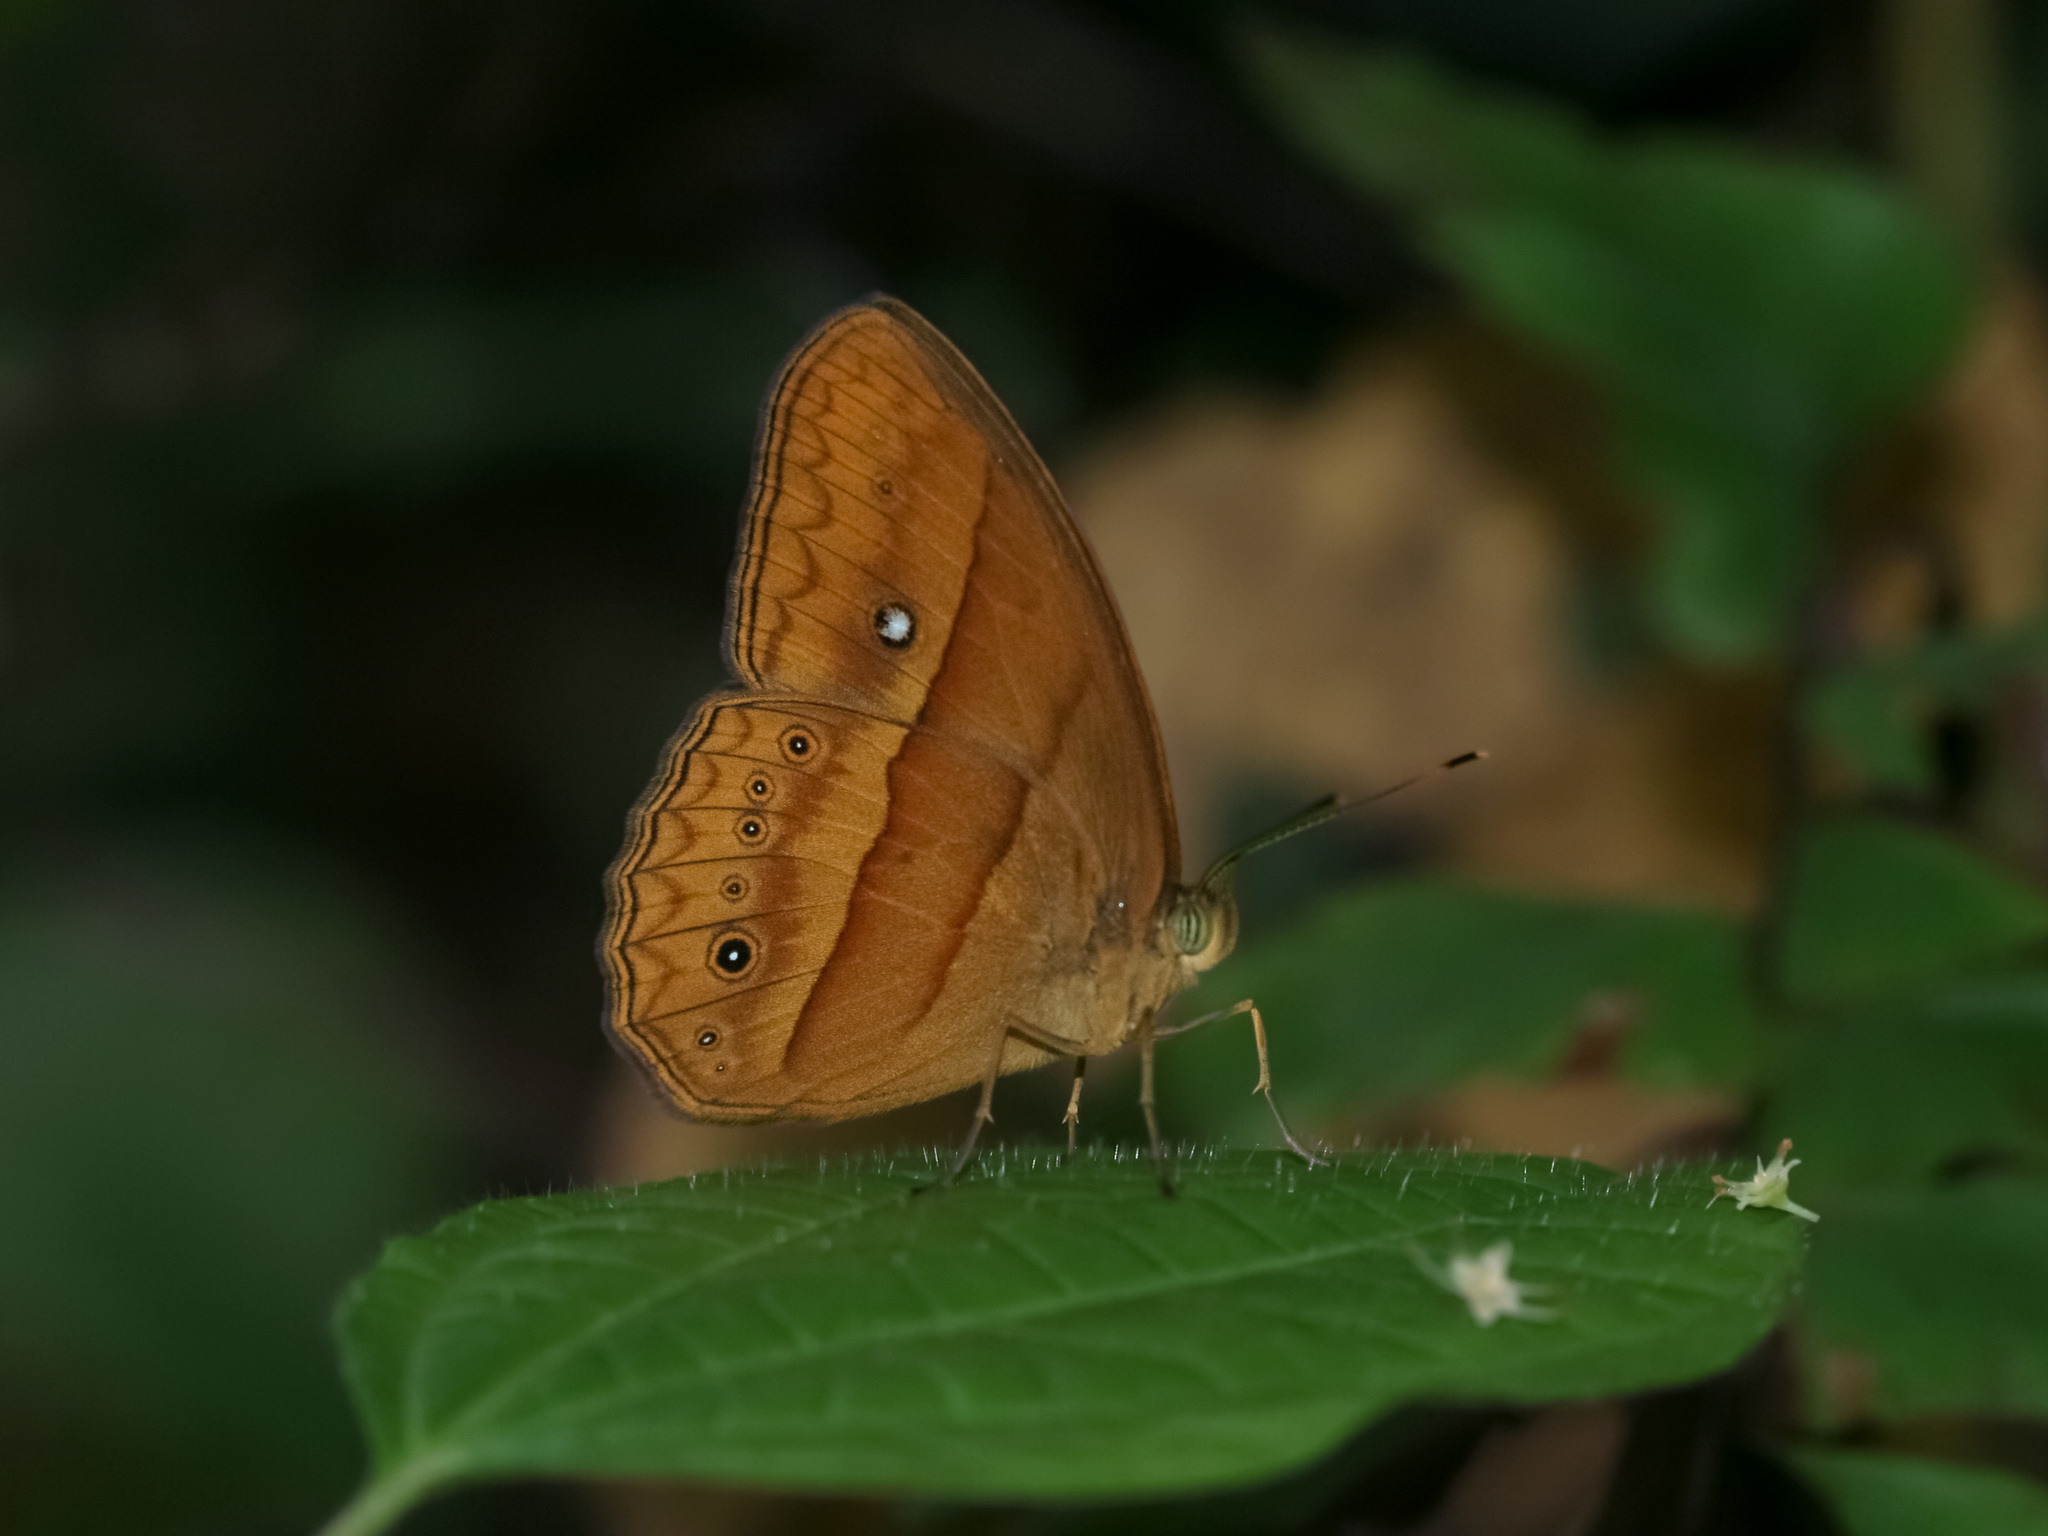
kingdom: Animalia
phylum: Arthropoda
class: Insecta
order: Lepidoptera
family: Nymphalidae
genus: Mycalesis
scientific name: Mycalesis mnasicles
